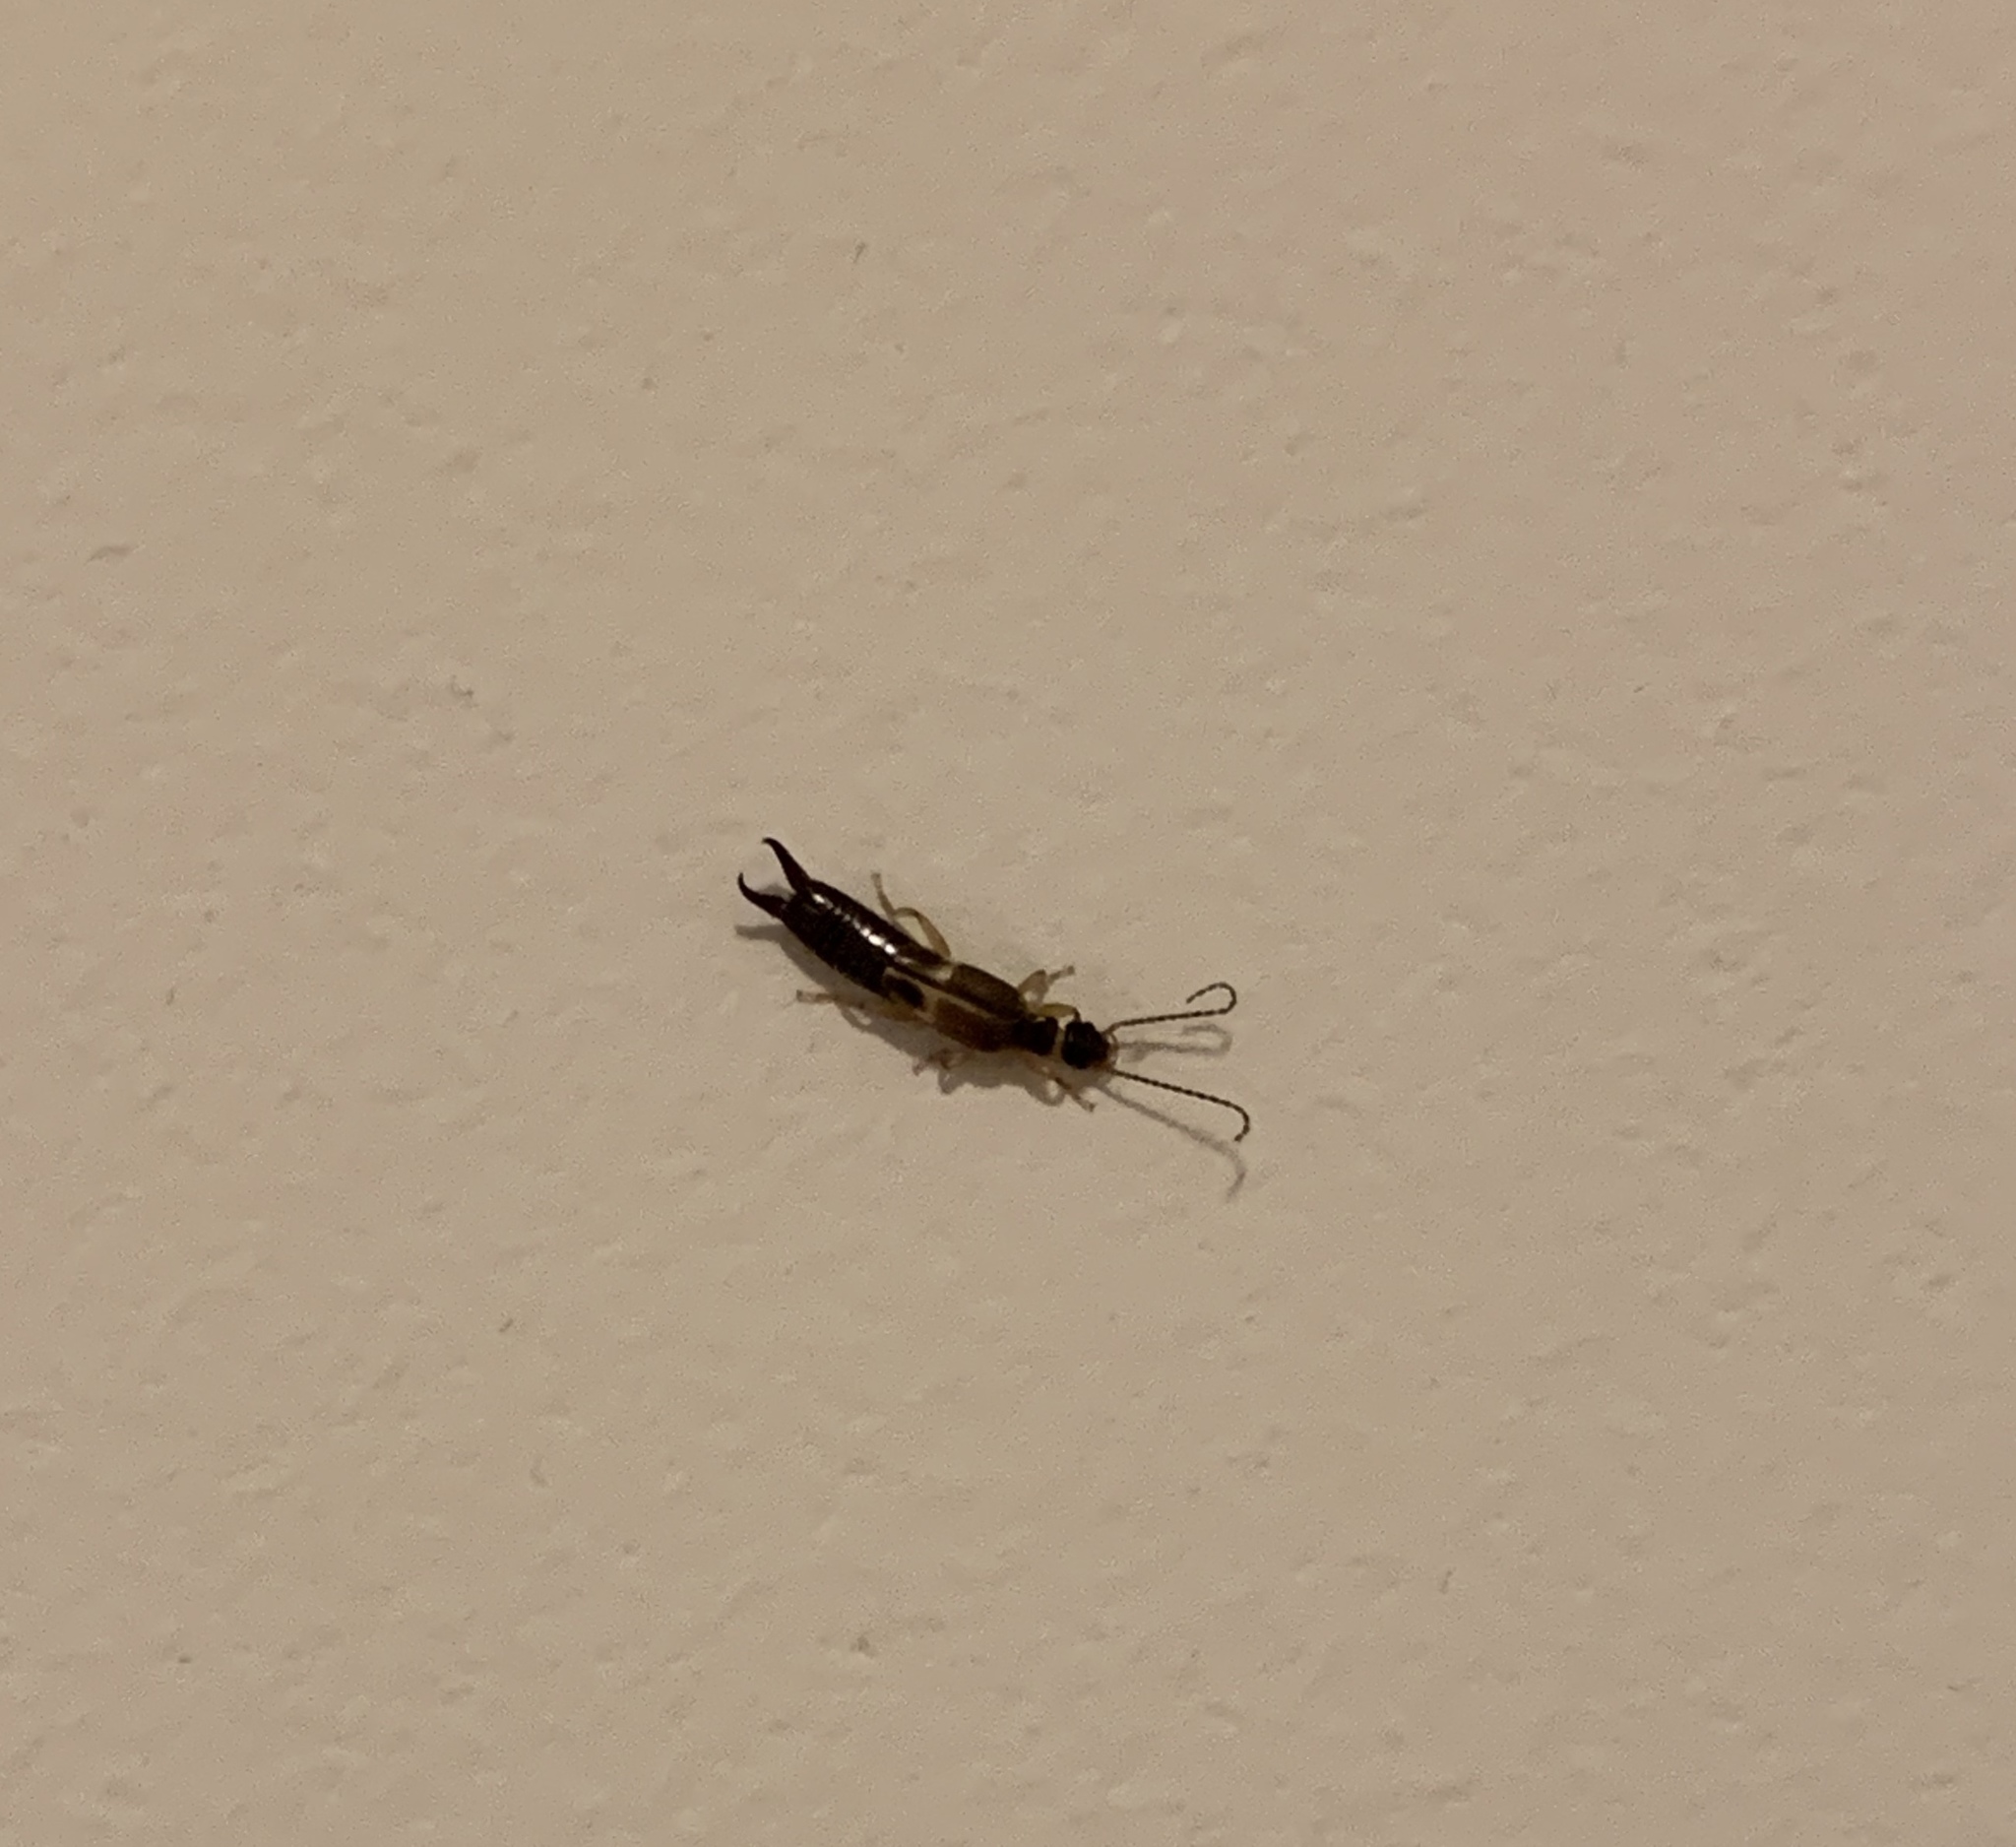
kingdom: Animalia
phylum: Arthropoda
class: Insecta
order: Dermaptera
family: Anisolabididae
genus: Euborellia
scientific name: Euborellia cincticollis
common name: African earwig
